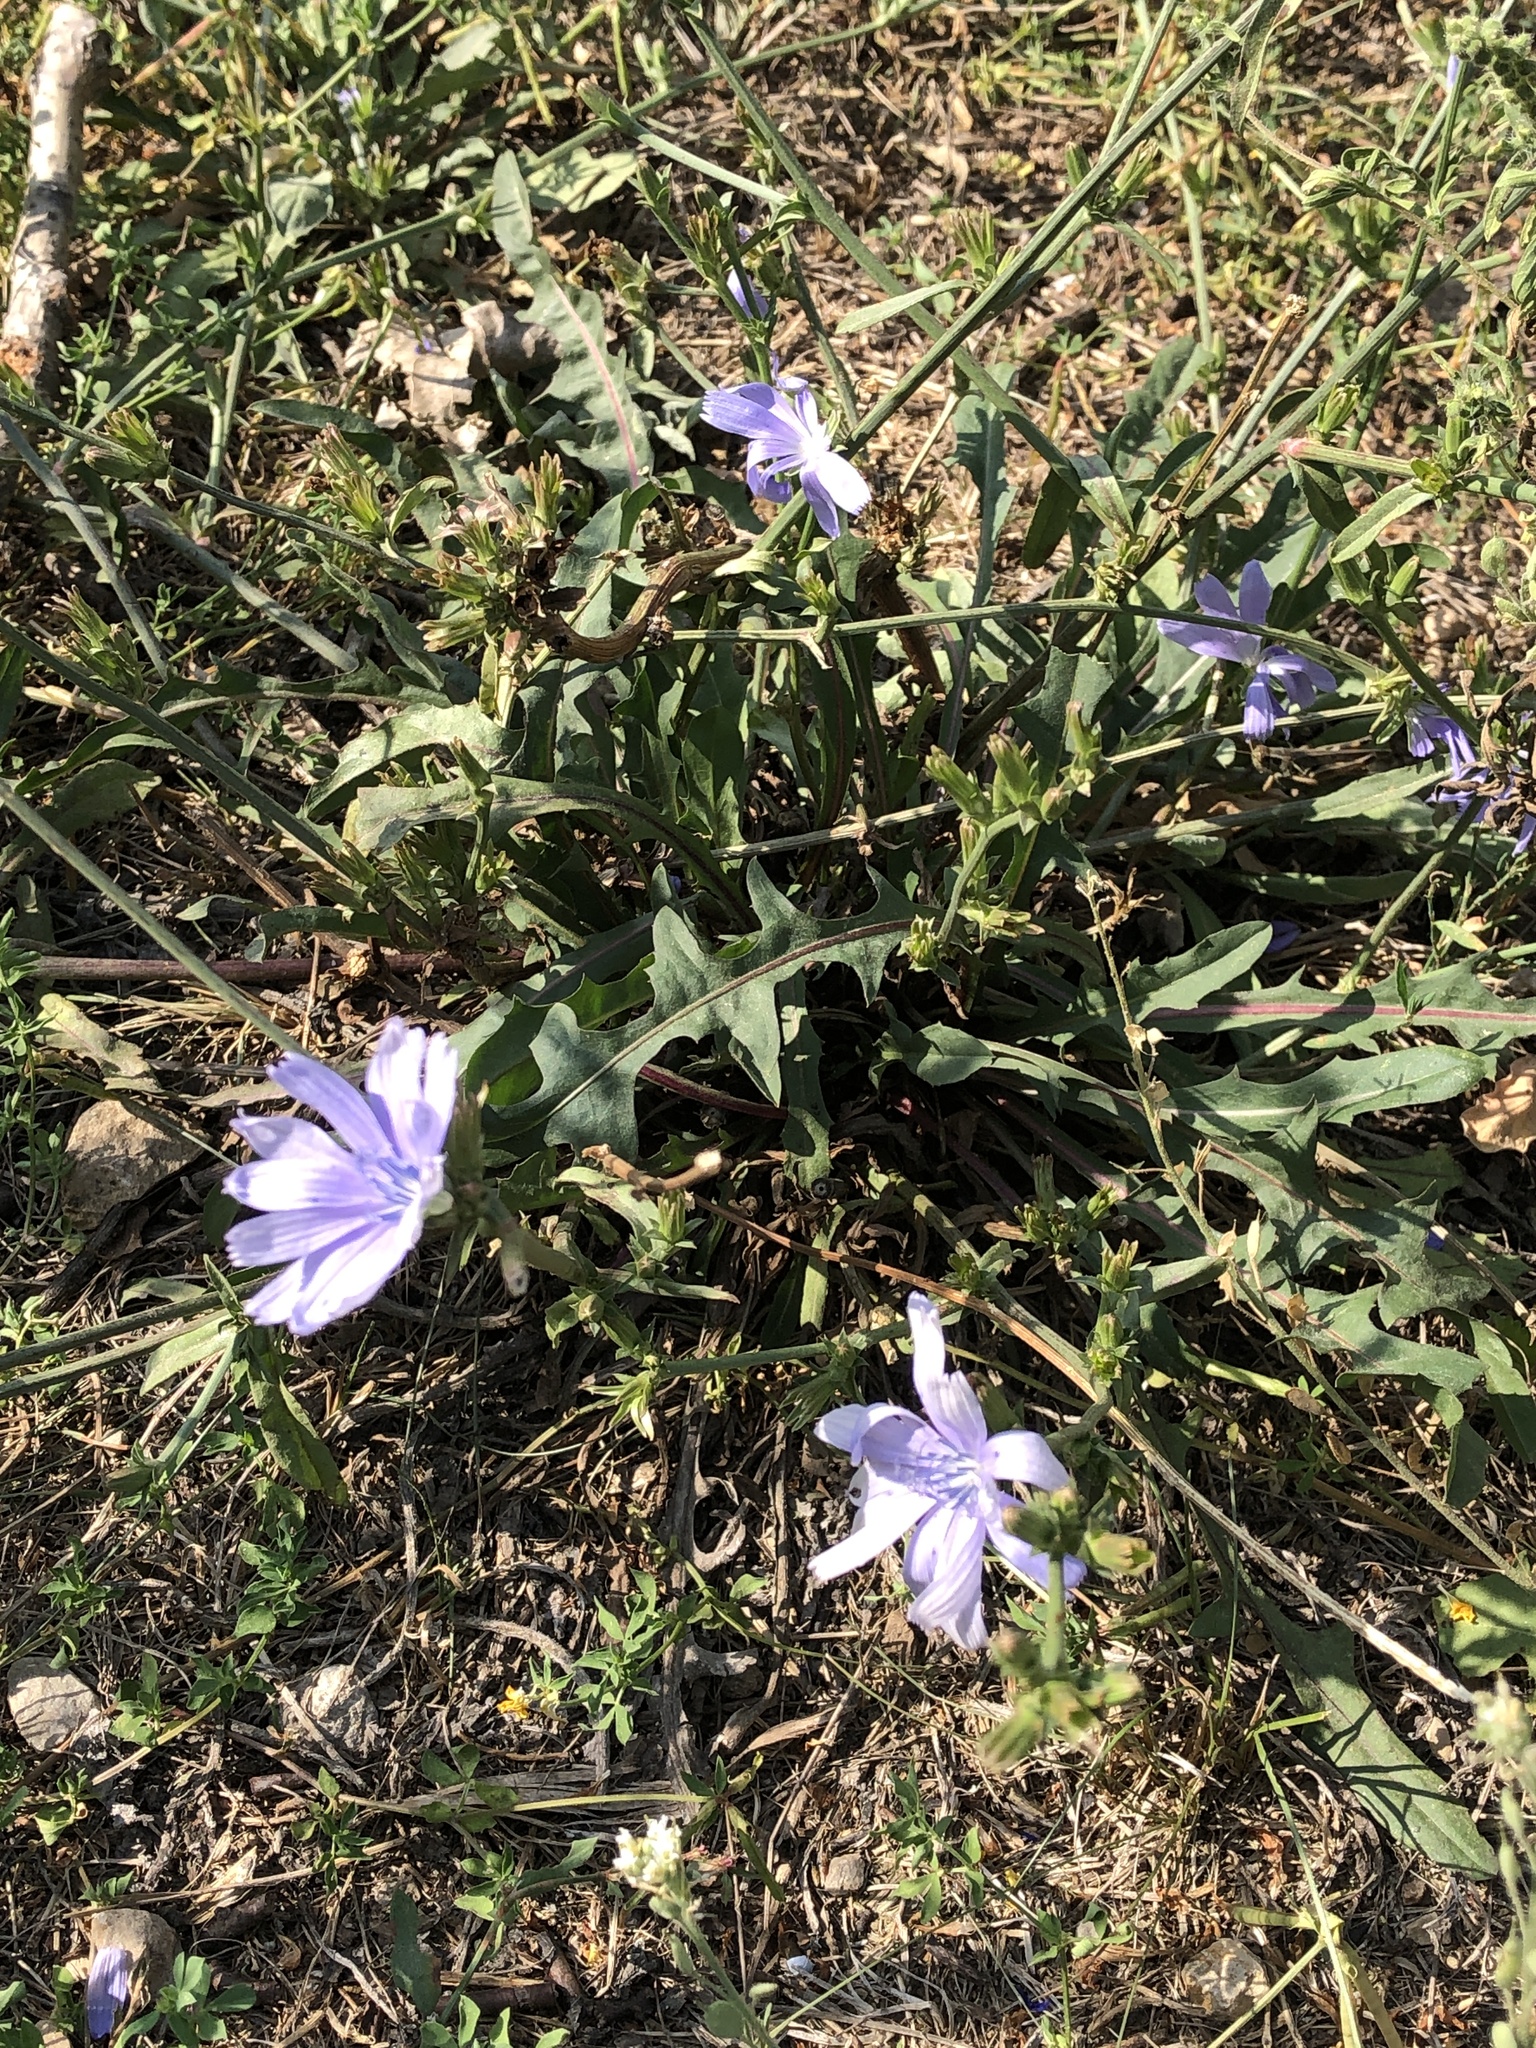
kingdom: Plantae
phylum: Tracheophyta
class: Magnoliopsida
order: Asterales
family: Asteraceae
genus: Cichorium
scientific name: Cichorium intybus
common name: Chicory
